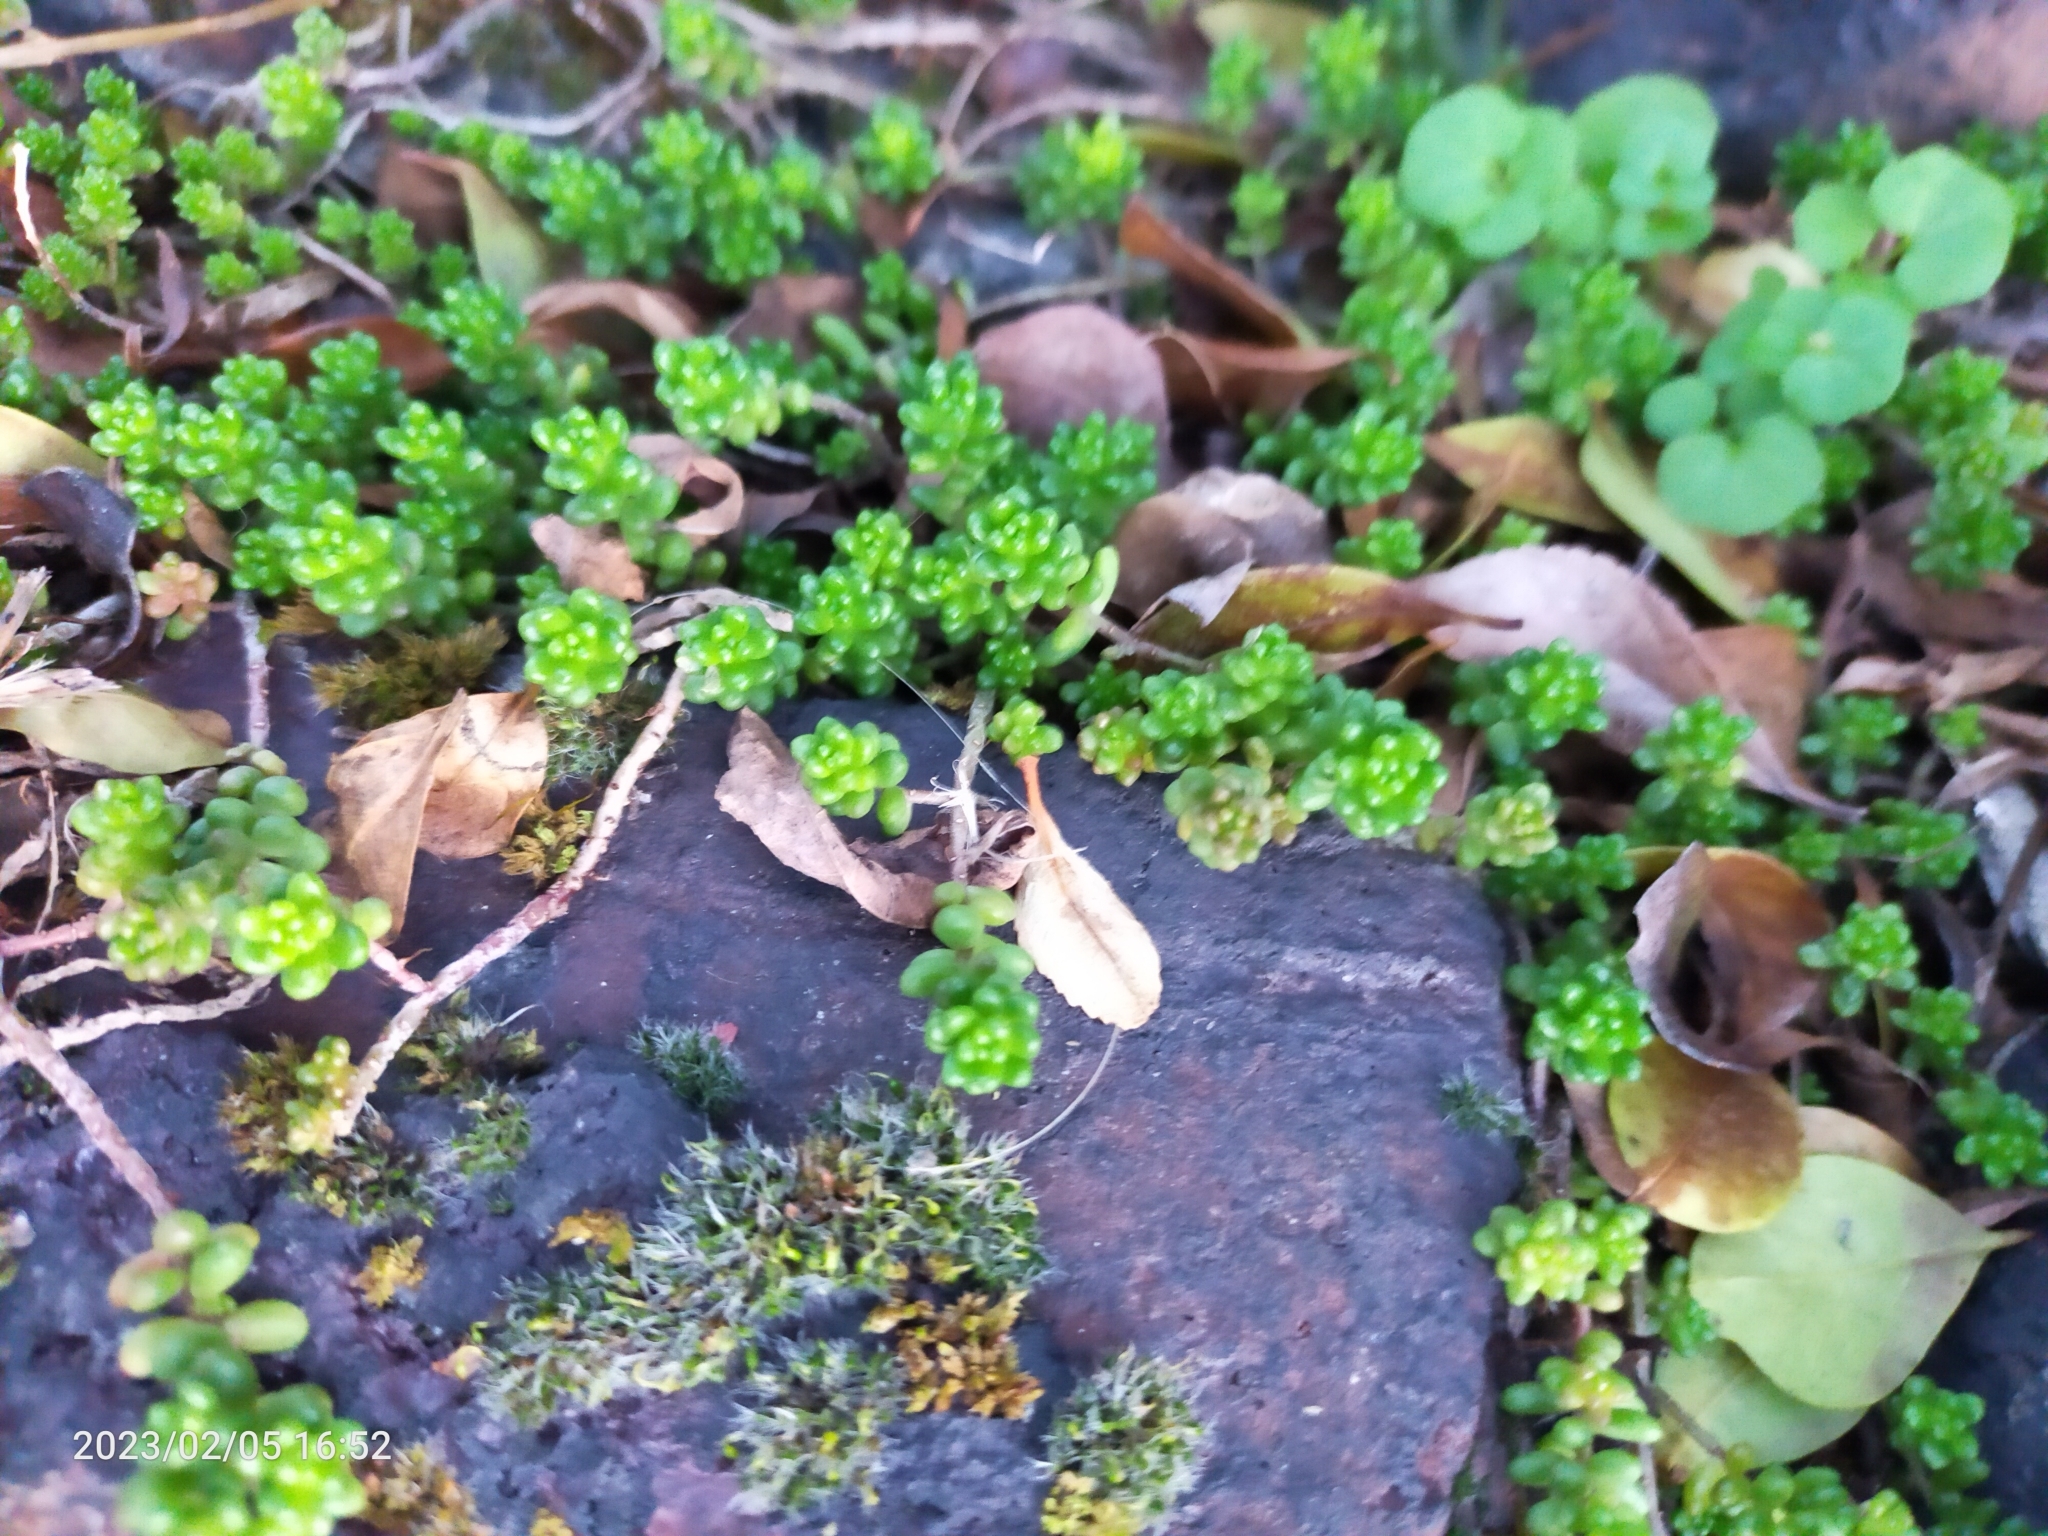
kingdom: Plantae
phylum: Tracheophyta
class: Magnoliopsida
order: Saxifragales
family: Crassulaceae
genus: Sedum
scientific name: Sedum album
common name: White stonecrop
